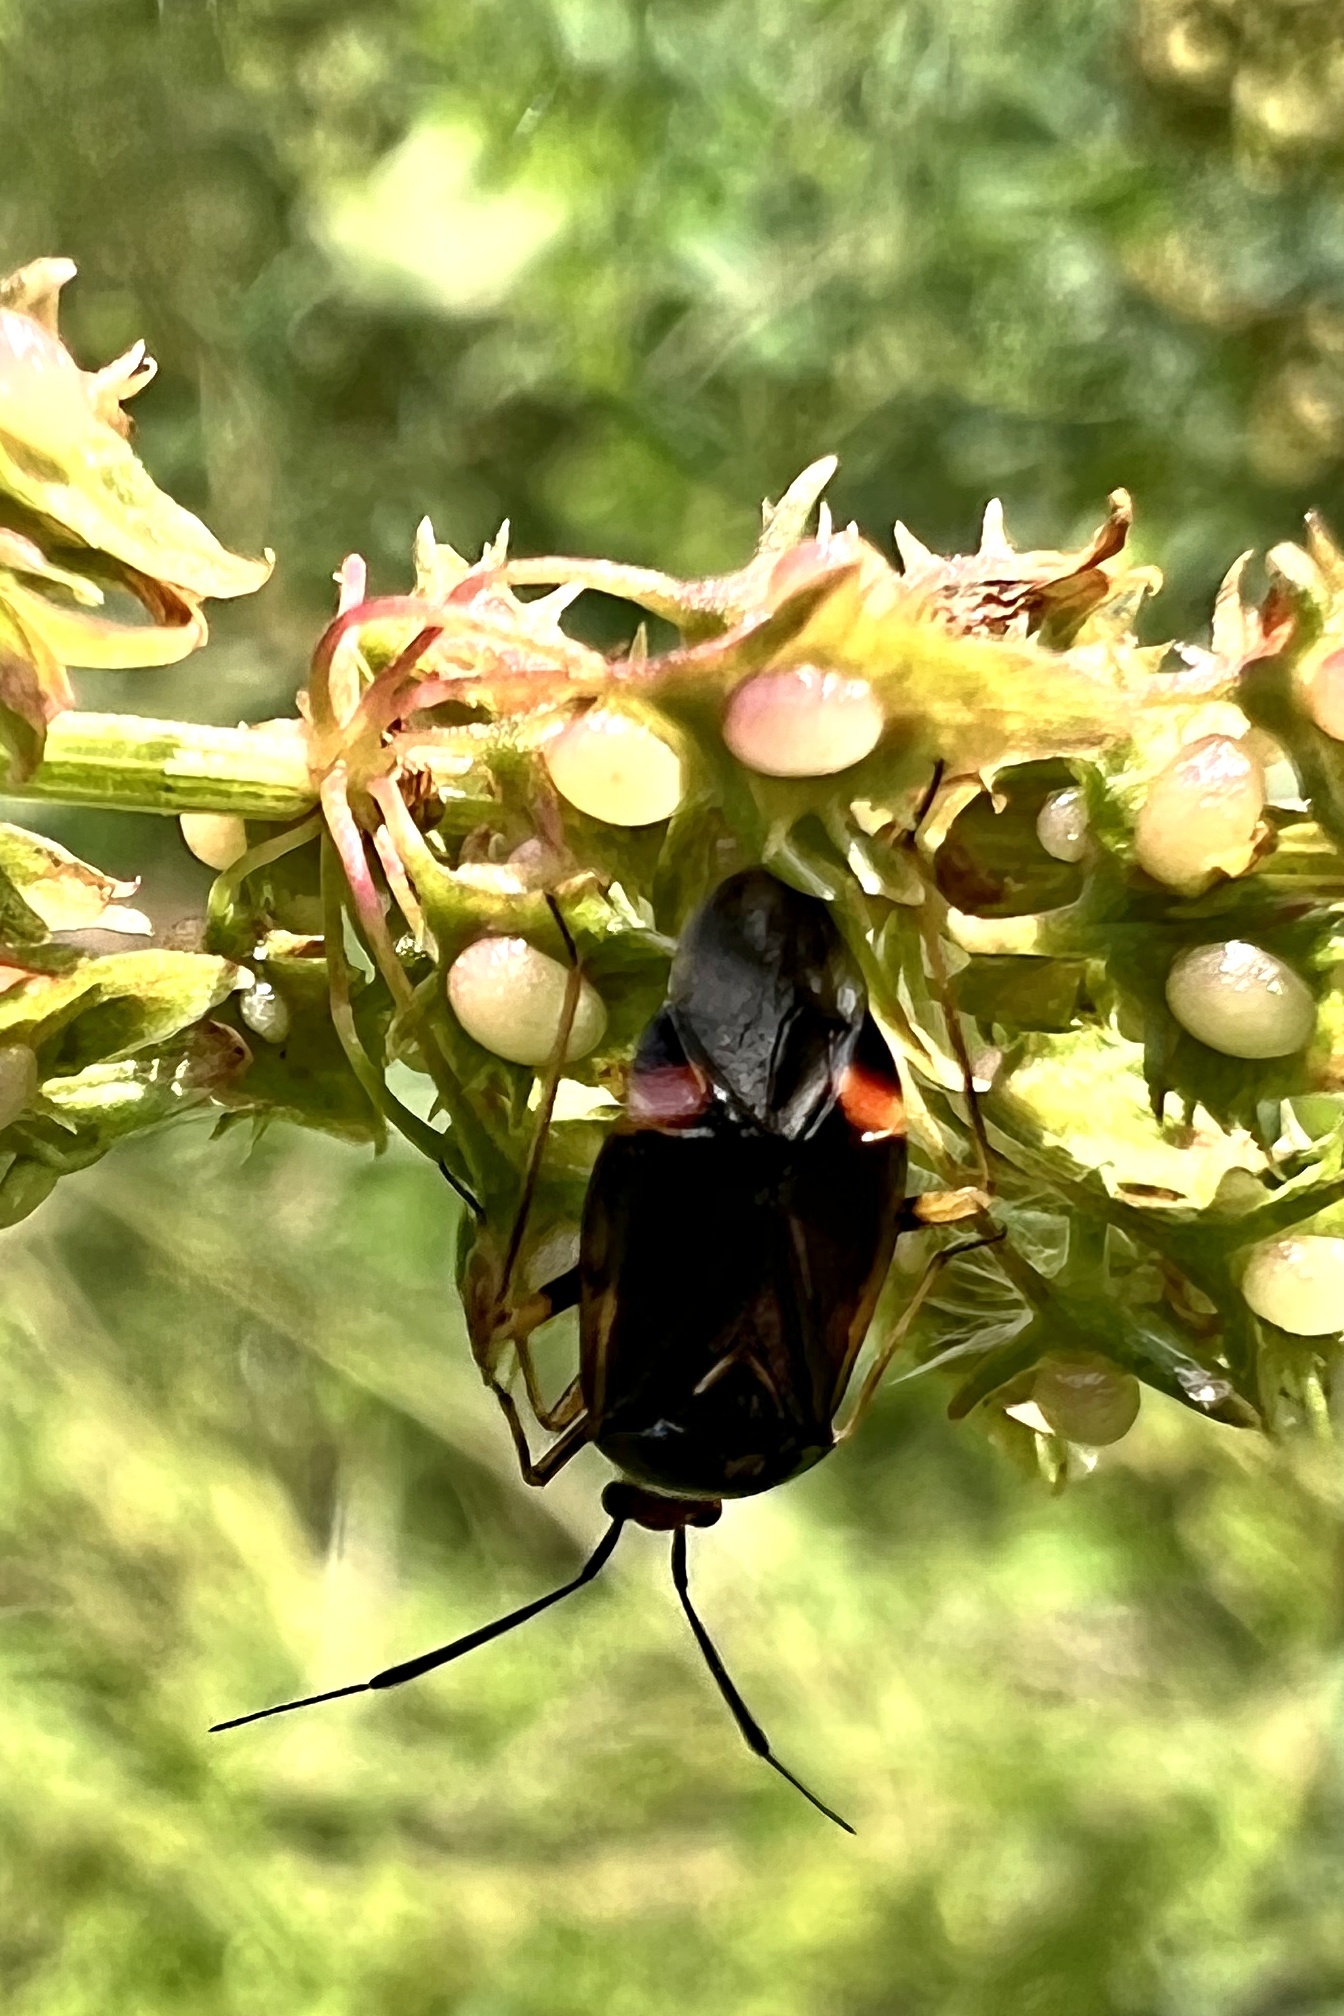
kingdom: Animalia
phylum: Arthropoda
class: Insecta
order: Hemiptera
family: Miridae
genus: Deraeocoris
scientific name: Deraeocoris ruber
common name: Plant bug
